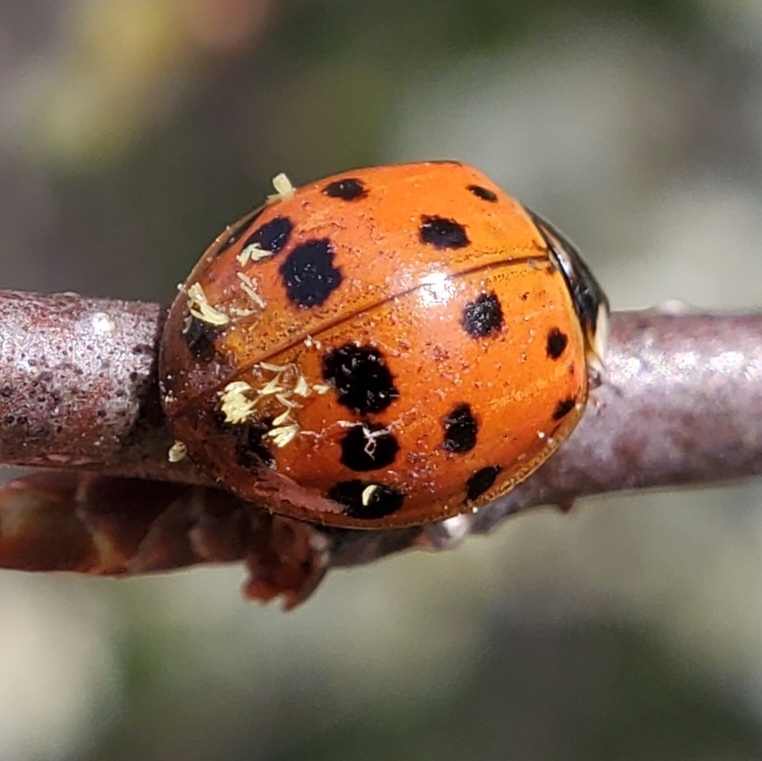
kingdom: Animalia
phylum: Arthropoda
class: Insecta
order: Coleoptera
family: Coccinellidae
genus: Harmonia
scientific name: Harmonia axyridis
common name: Harlequin ladybird
